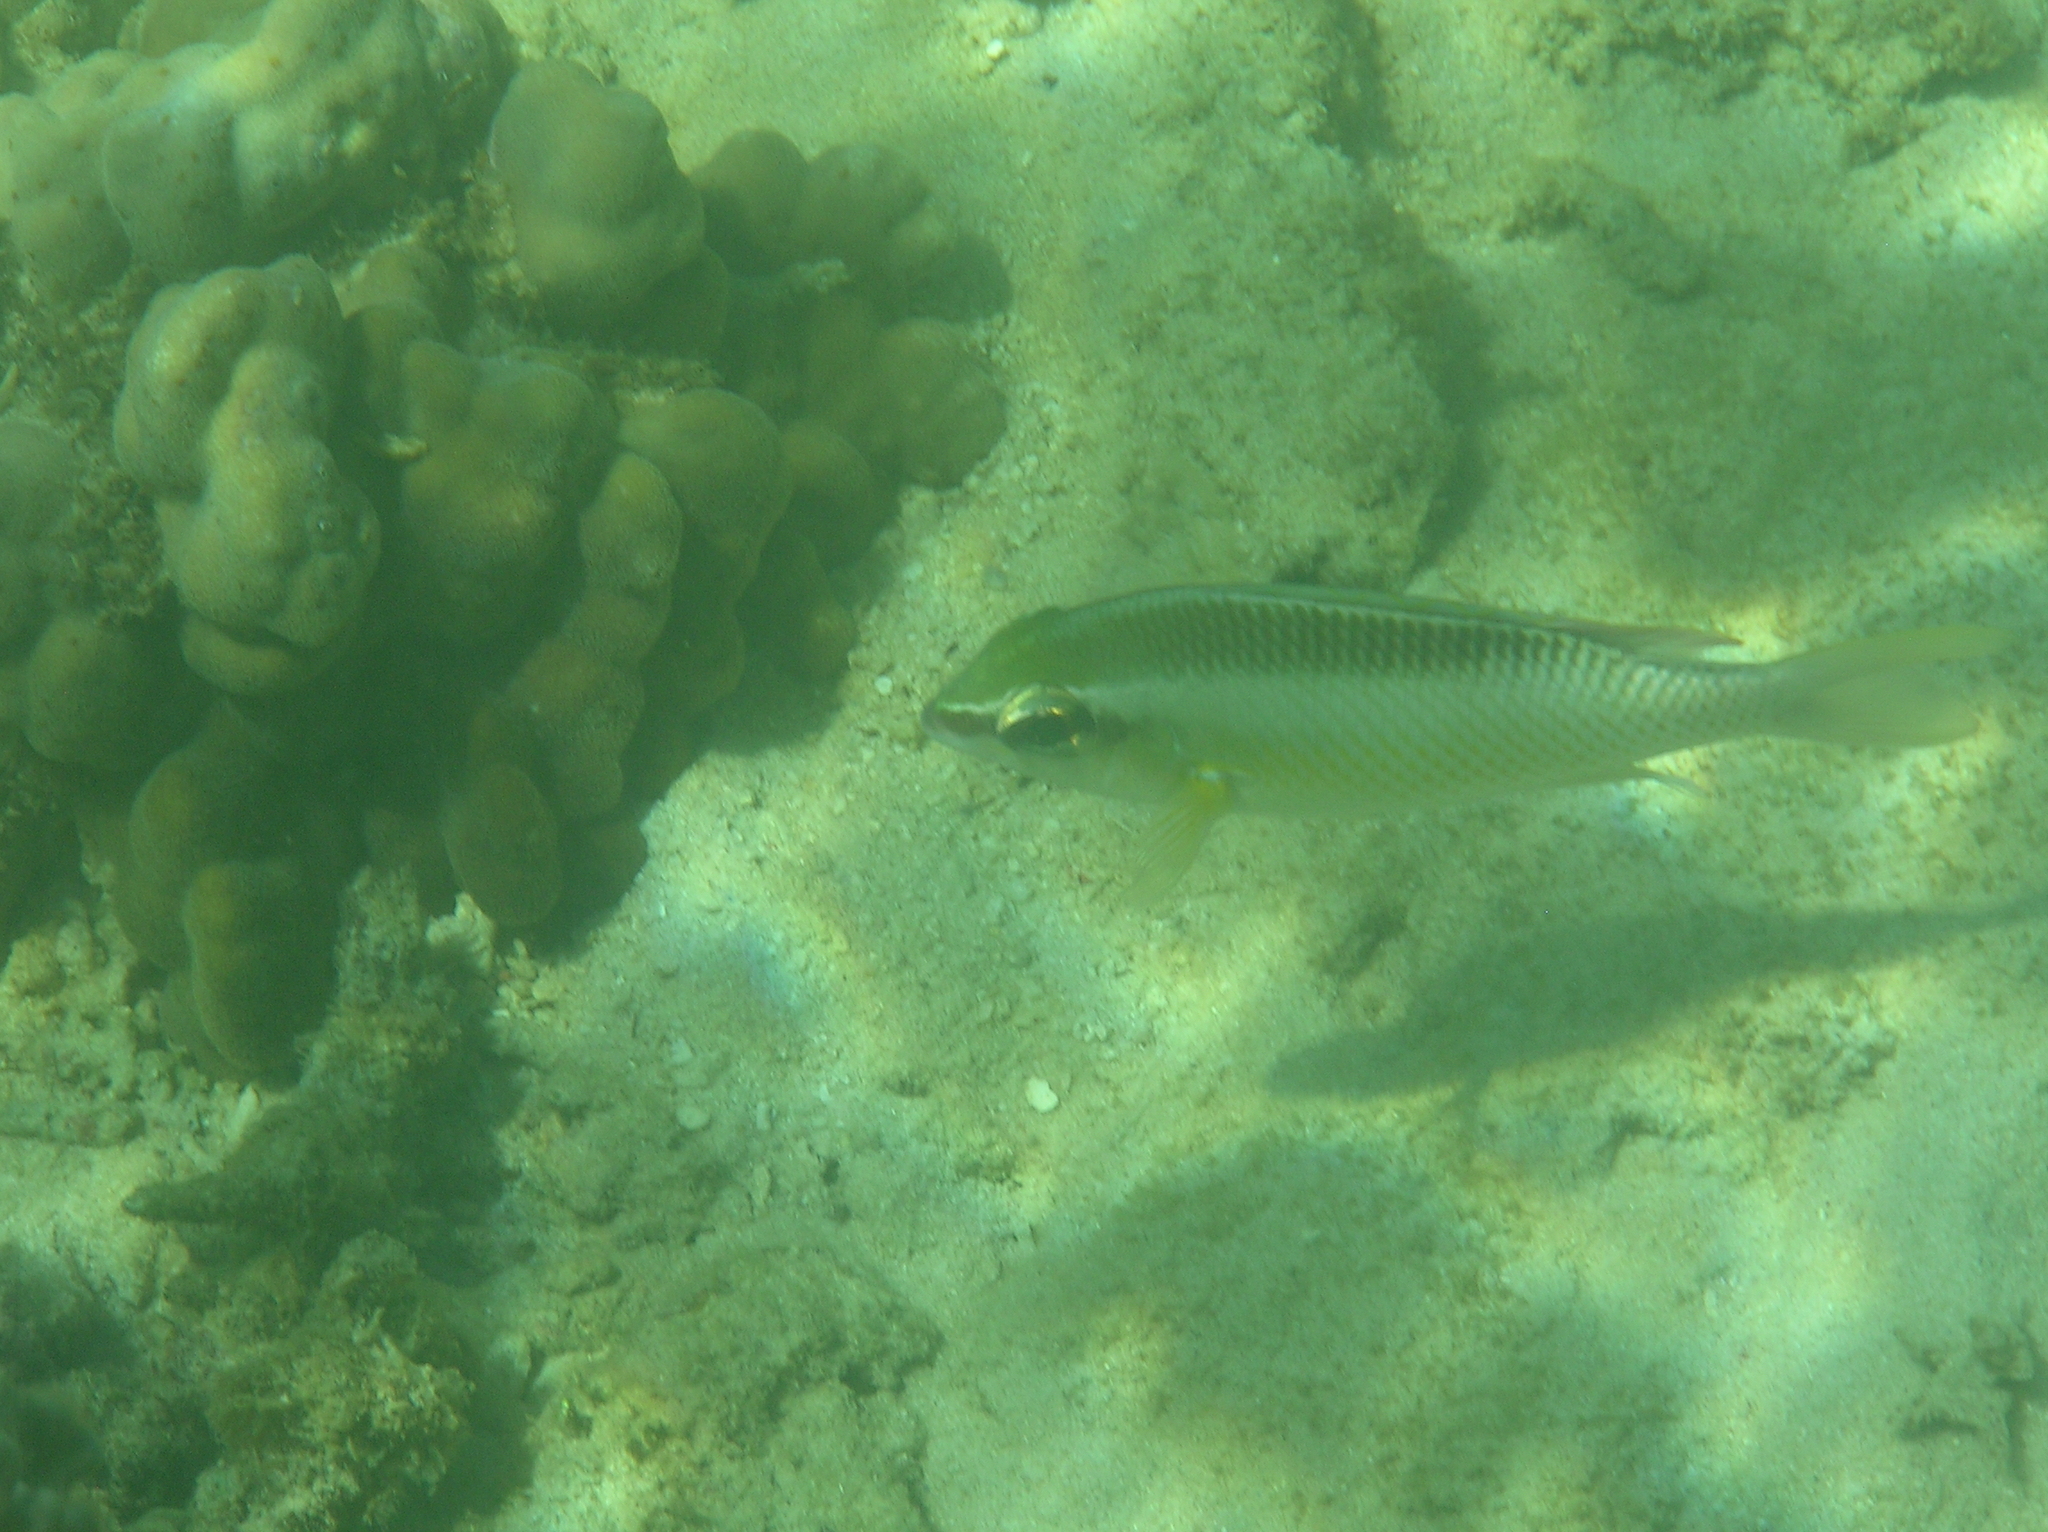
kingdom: Animalia
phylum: Chordata
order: Perciformes
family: Nemipteridae
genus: Scolopsis
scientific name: Scolopsis margaritifera
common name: Pearly monocle bream
